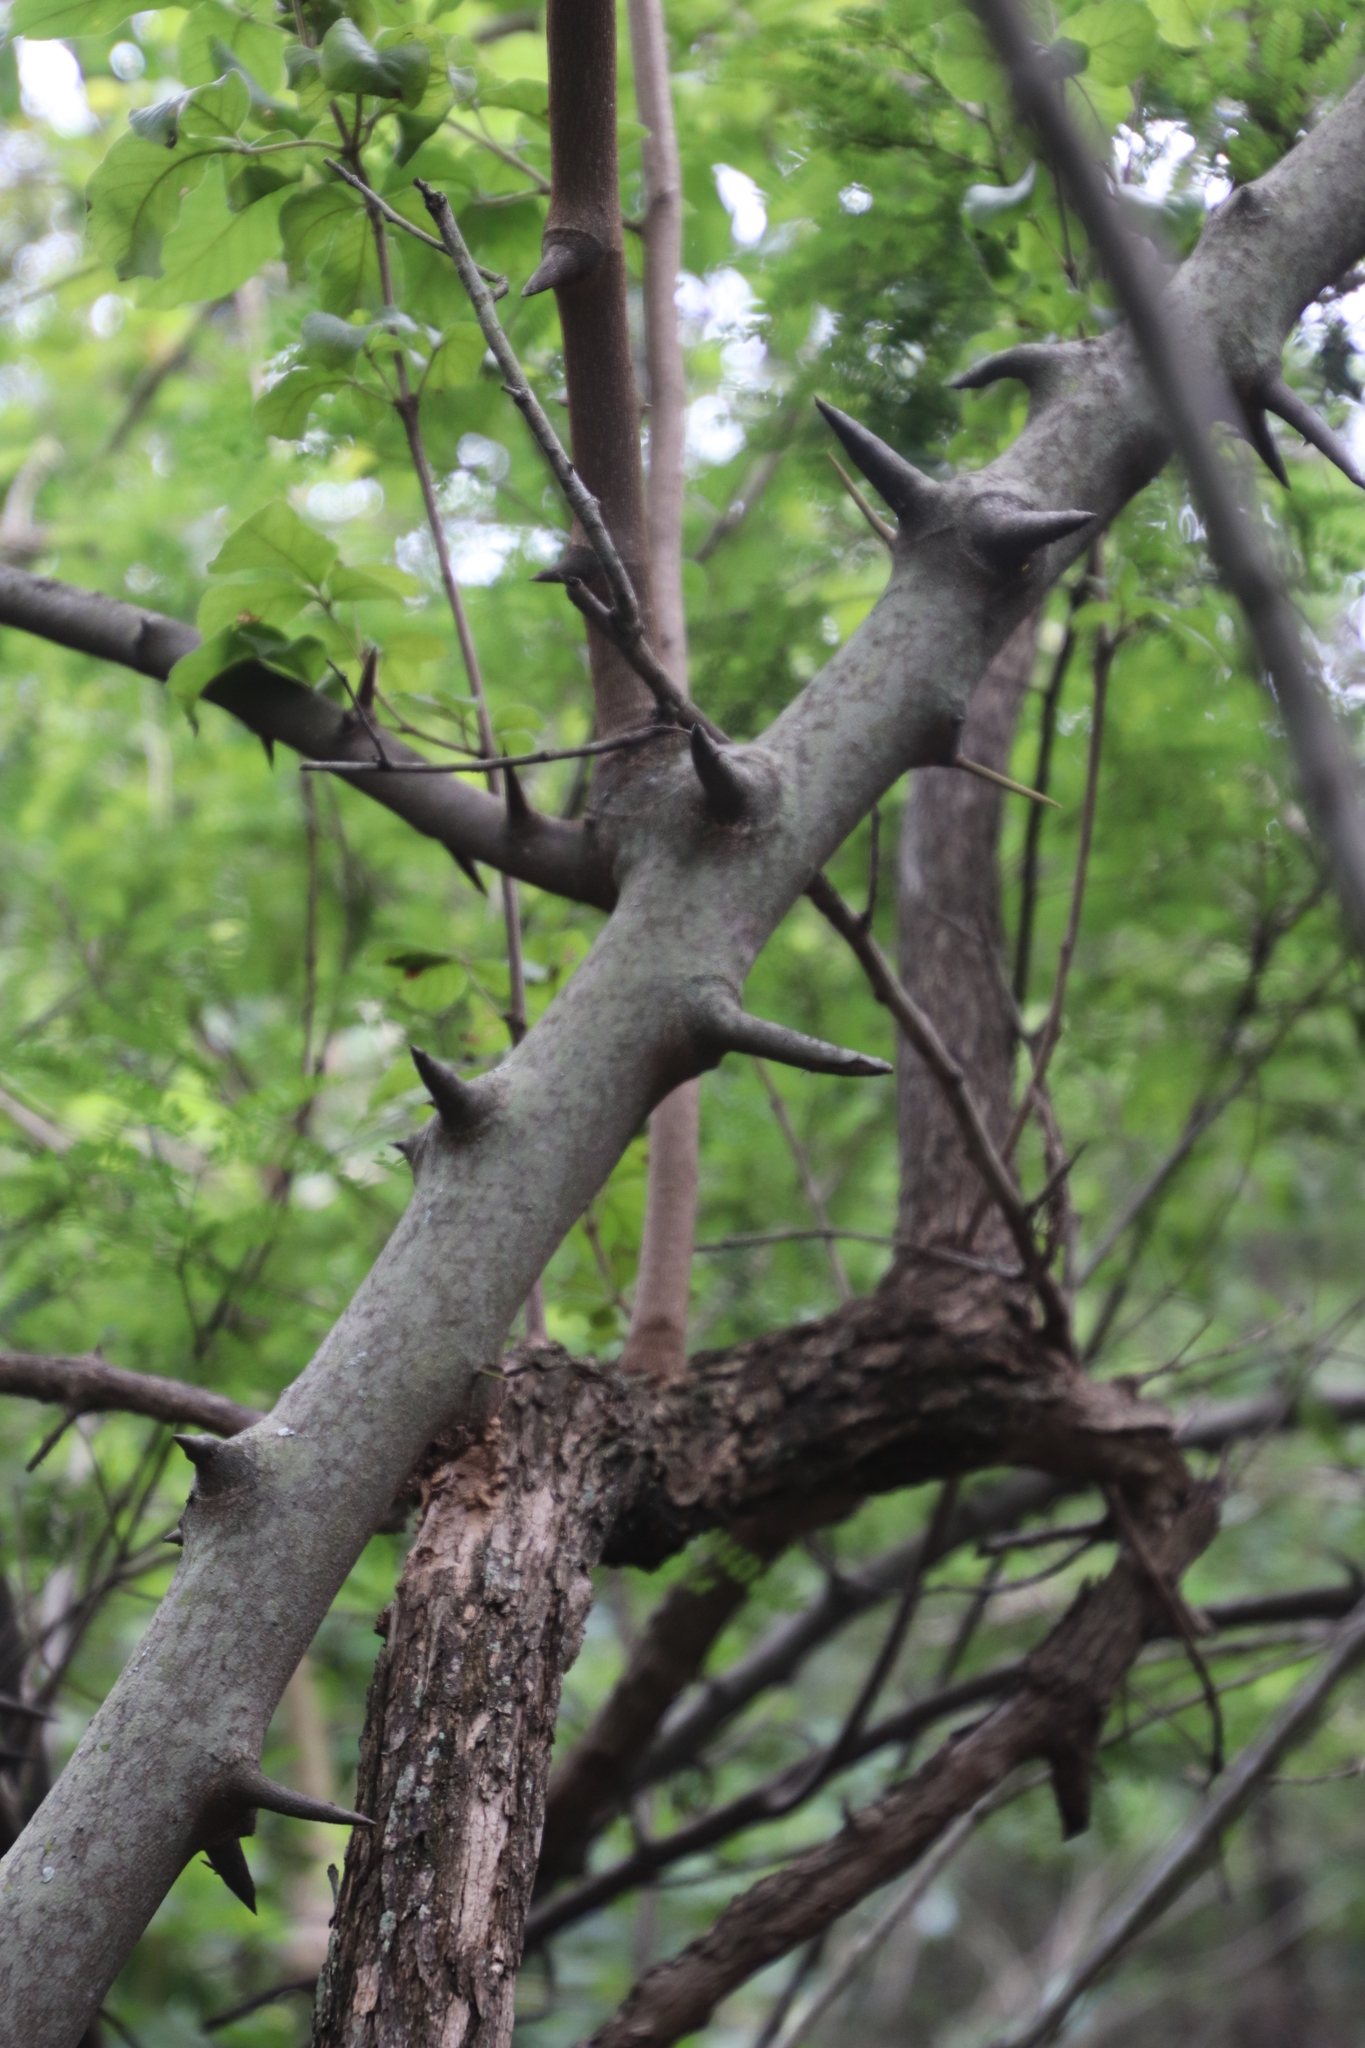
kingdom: Plantae
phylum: Tracheophyta
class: Magnoliopsida
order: Fabales
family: Fabaceae
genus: Dalbergia
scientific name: Dalbergia armata
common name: Hluhluwe climber
